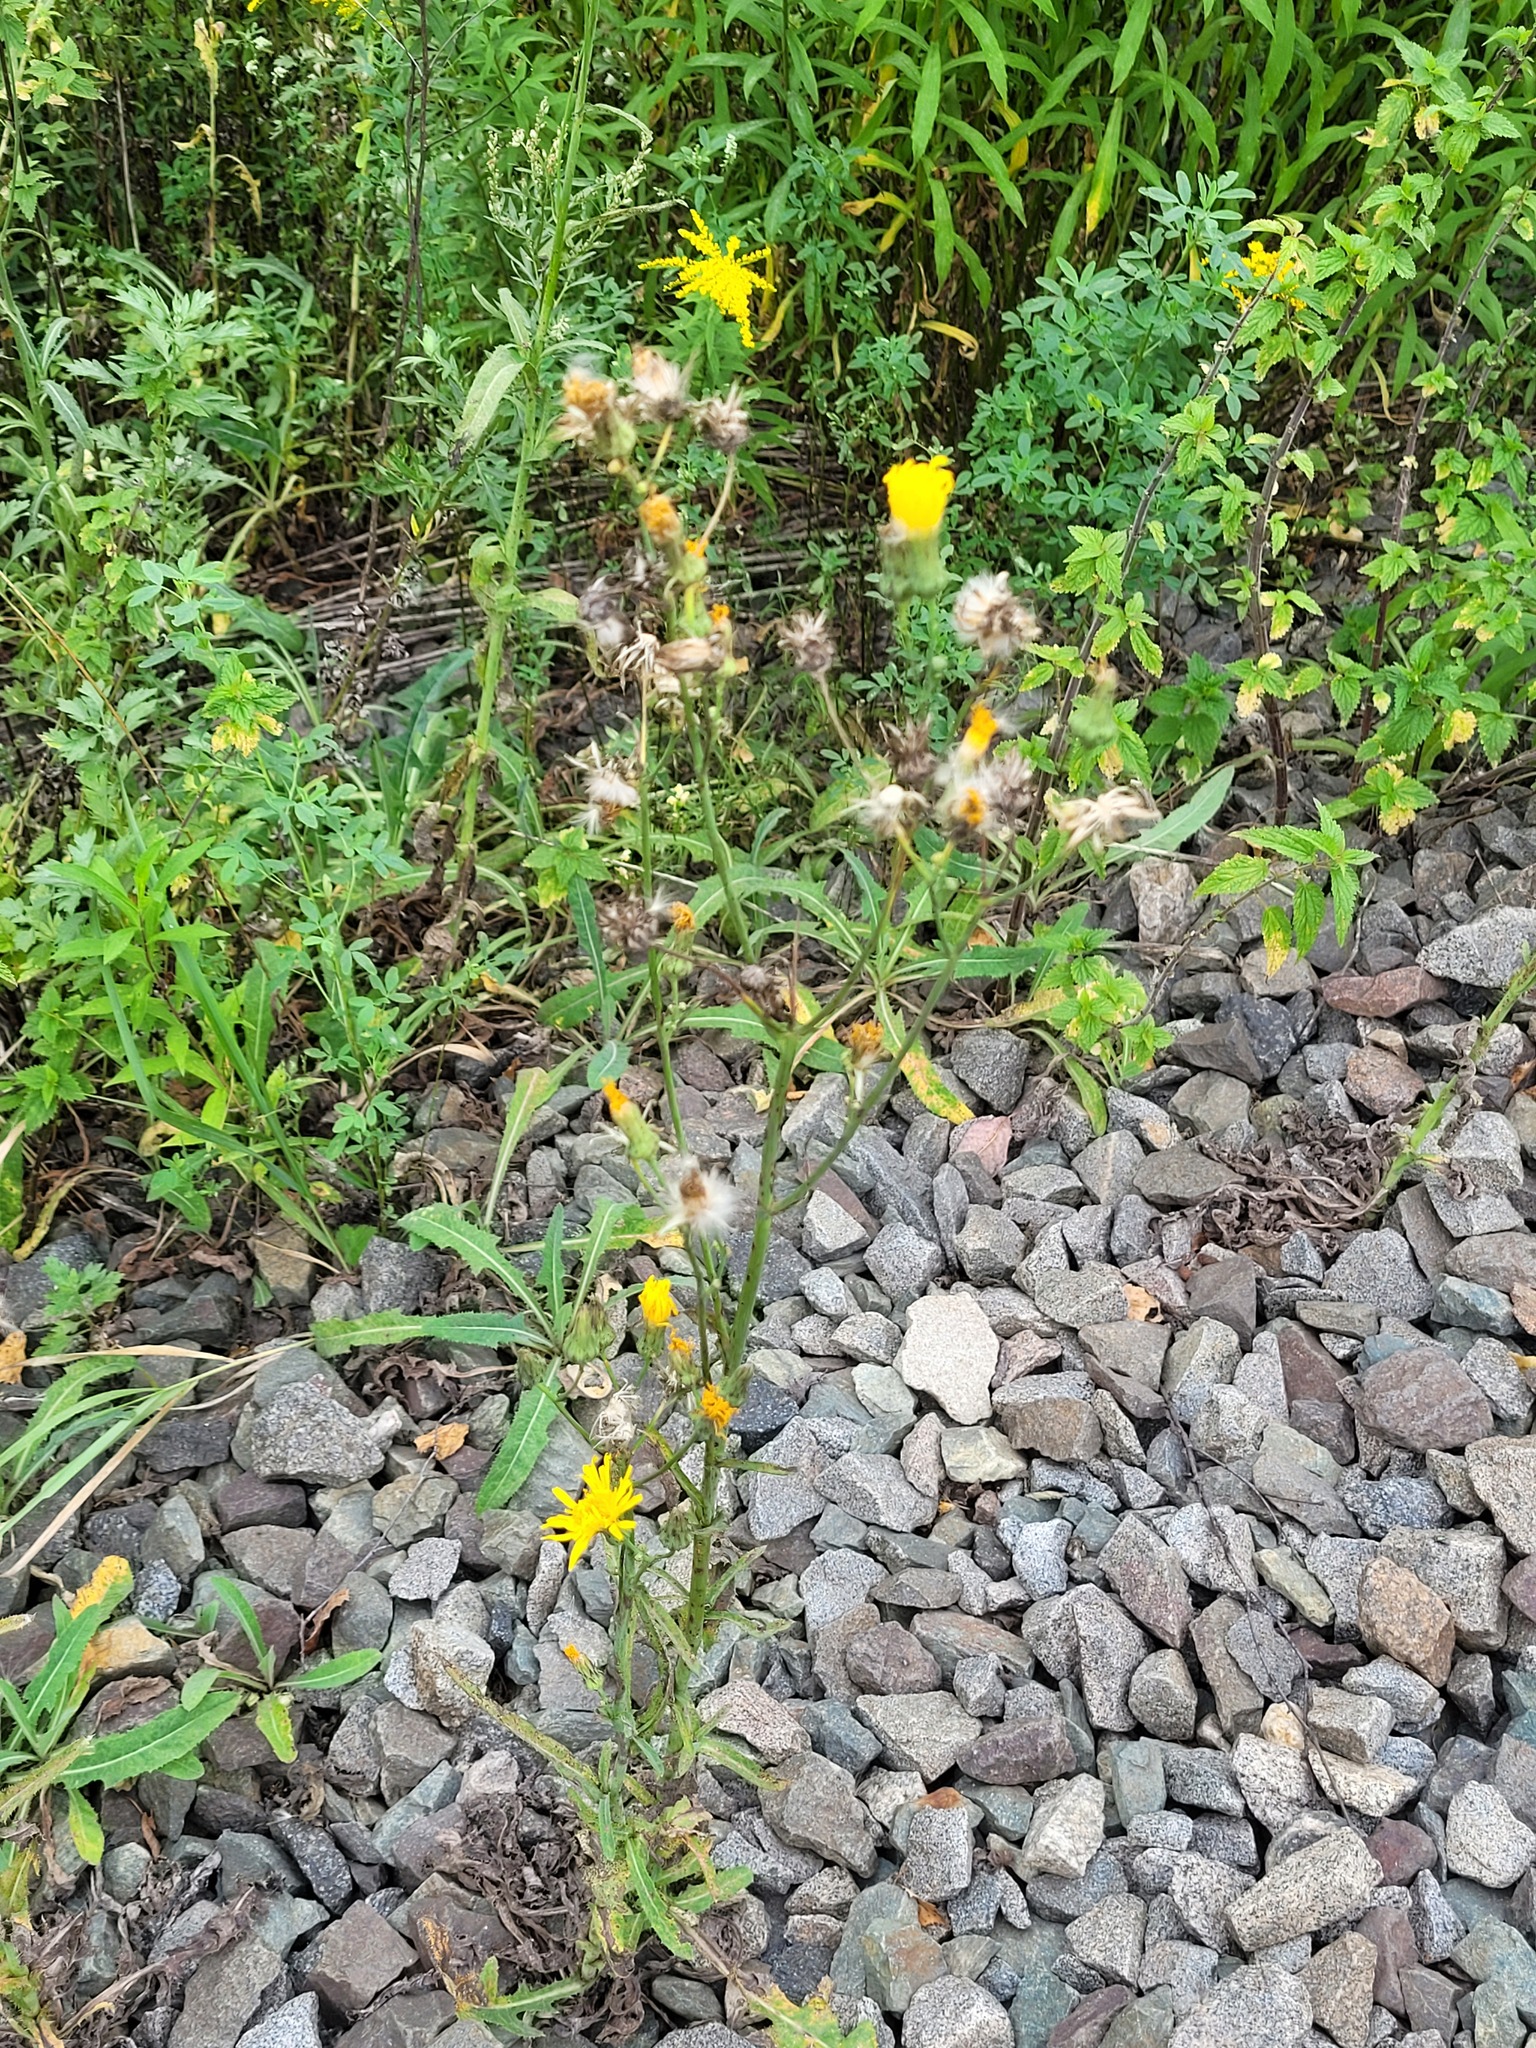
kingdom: Plantae
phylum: Tracheophyta
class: Magnoliopsida
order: Asterales
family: Asteraceae
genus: Sonchus
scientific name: Sonchus arvensis
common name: Perennial sow-thistle
